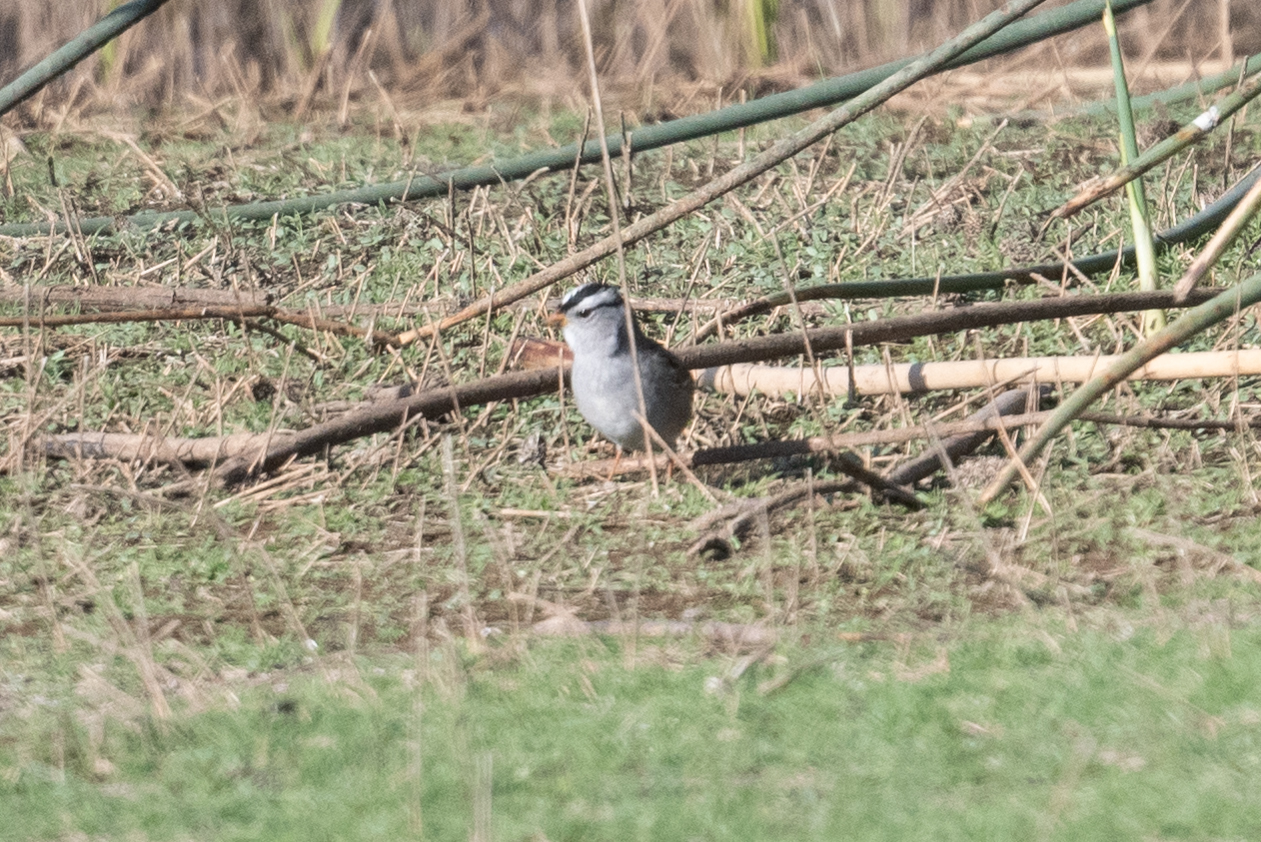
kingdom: Animalia
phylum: Chordata
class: Aves
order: Passeriformes
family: Passerellidae
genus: Zonotrichia
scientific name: Zonotrichia leucophrys
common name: White-crowned sparrow
